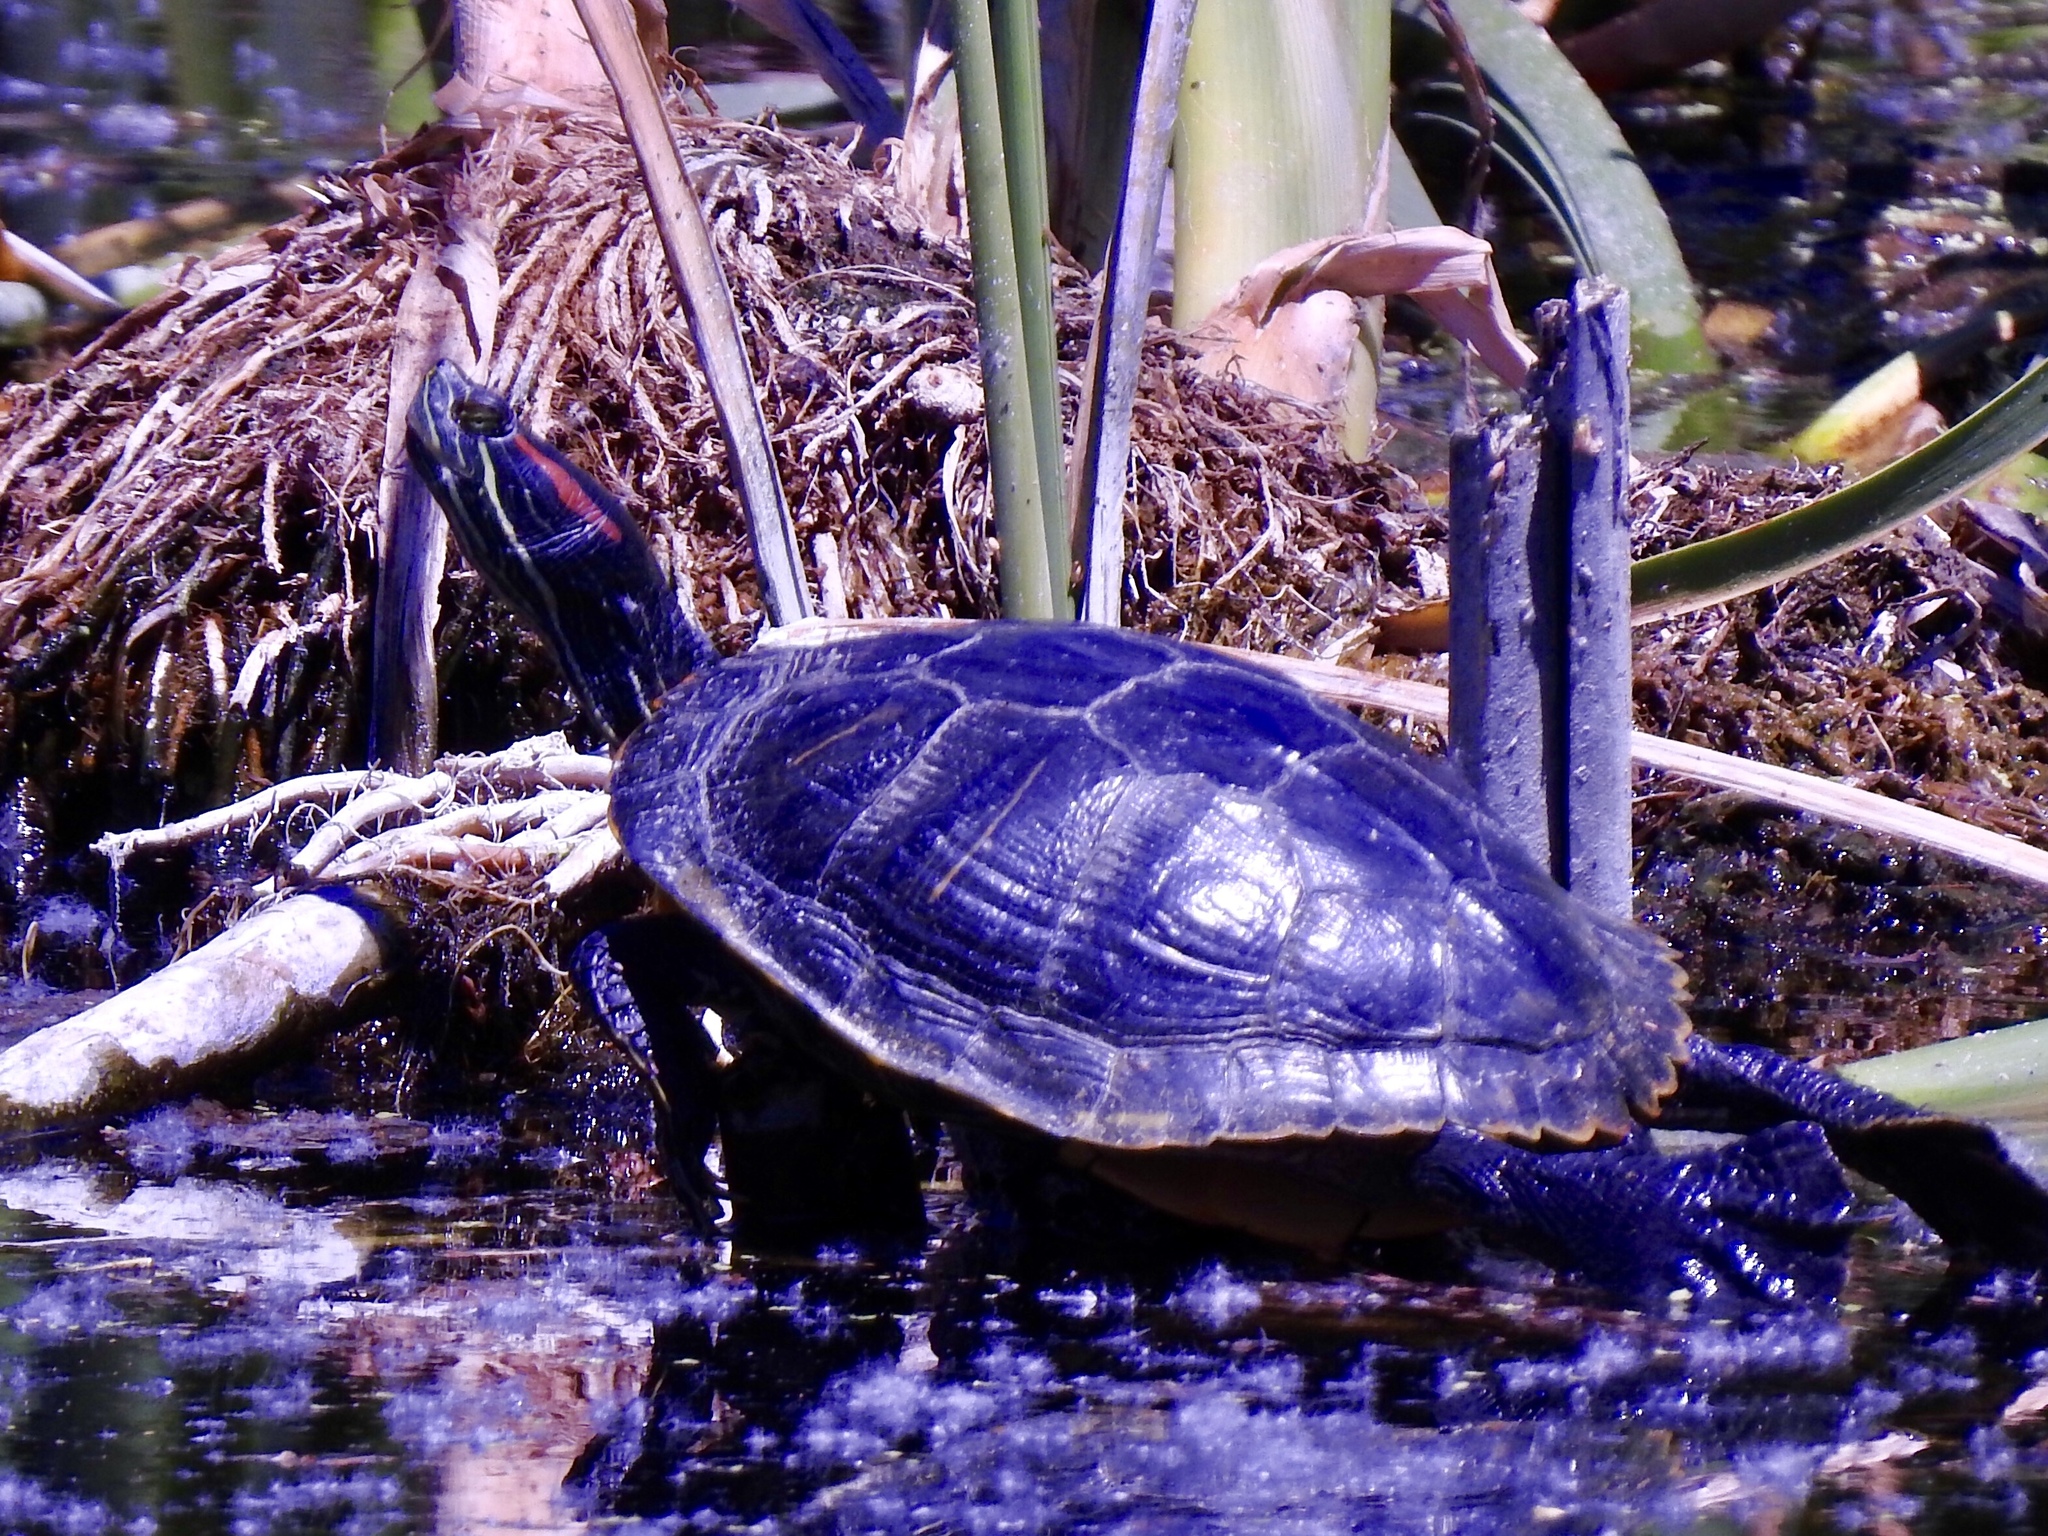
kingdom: Animalia
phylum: Chordata
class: Testudines
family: Emydidae
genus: Trachemys
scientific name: Trachemys scripta
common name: Slider
